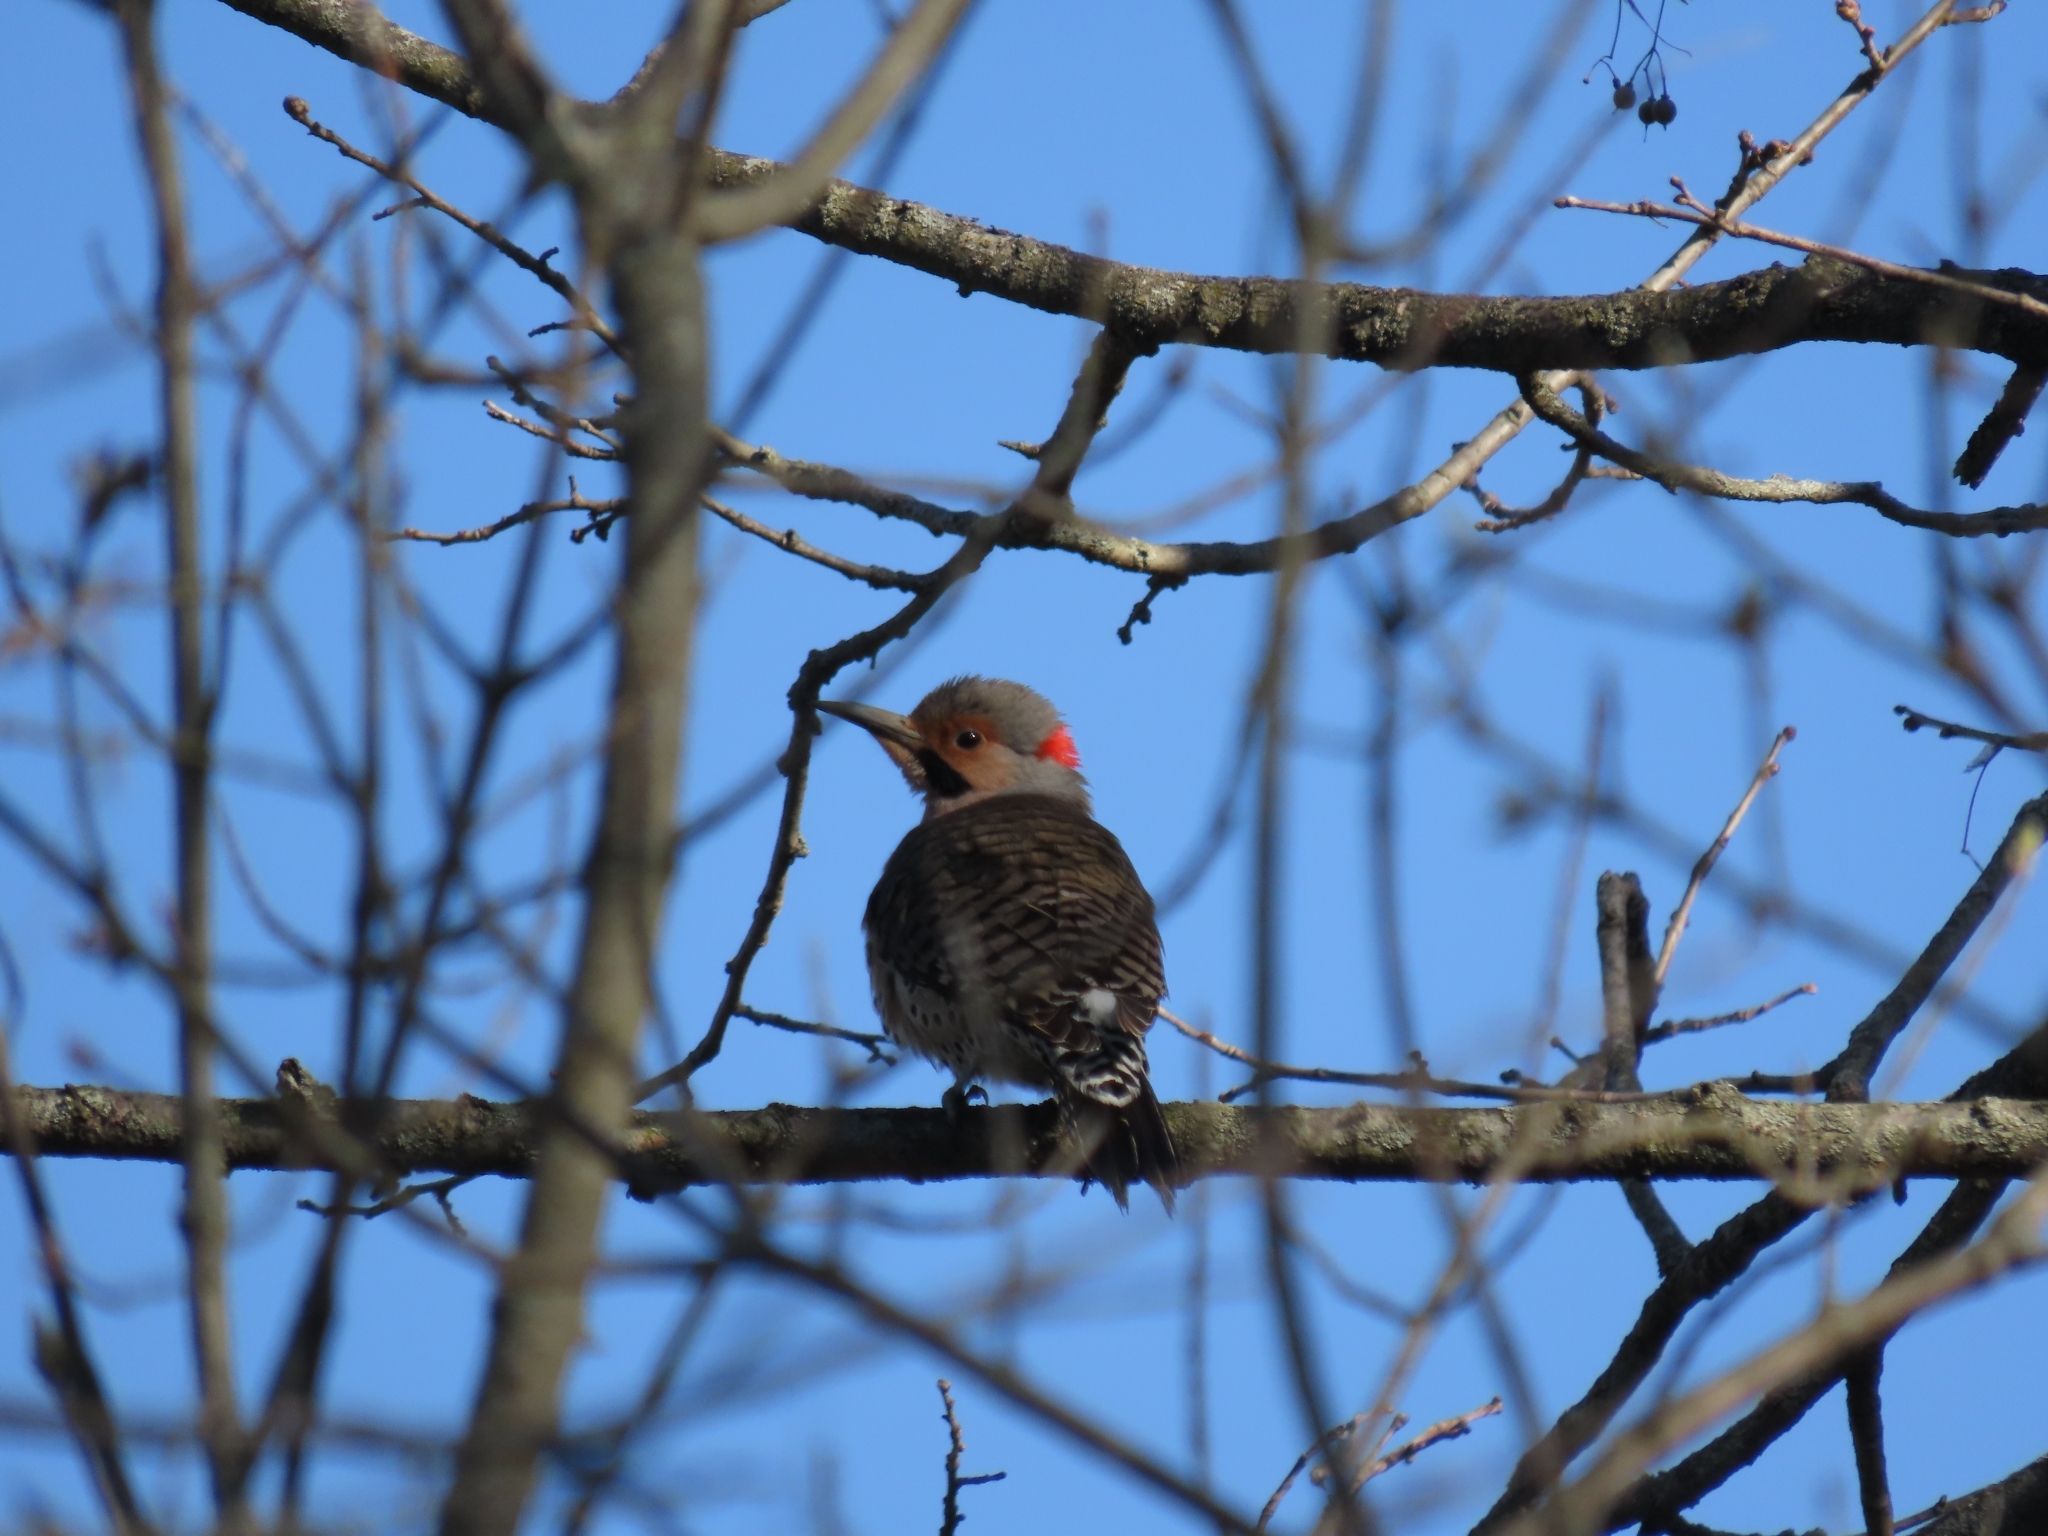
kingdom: Animalia
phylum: Chordata
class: Aves
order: Piciformes
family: Picidae
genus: Colaptes
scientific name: Colaptes auratus
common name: Northern flicker
